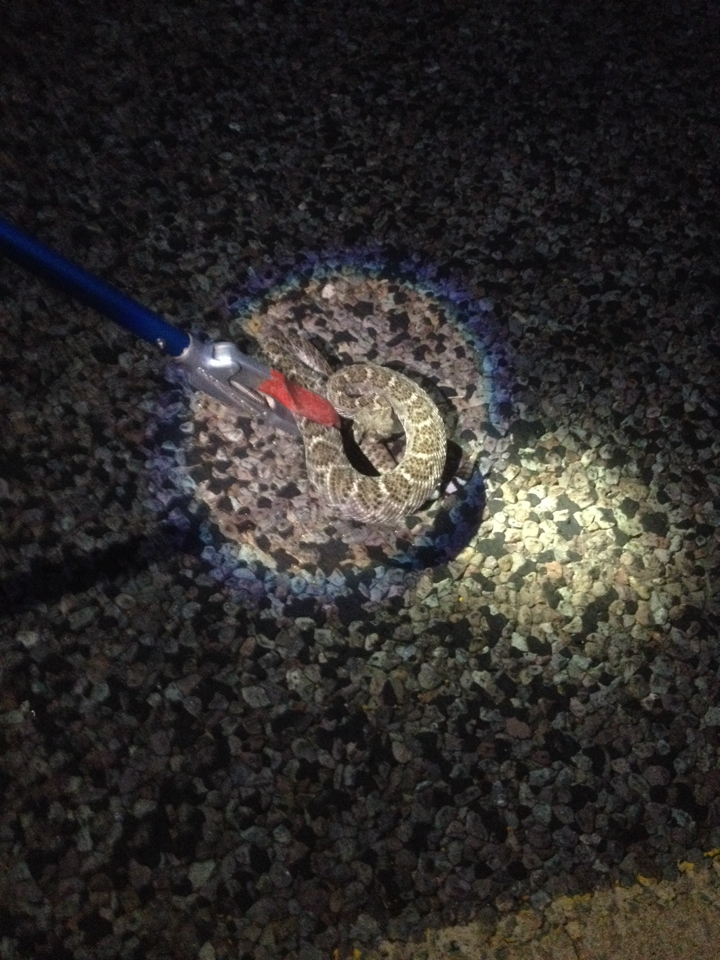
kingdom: Animalia
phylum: Chordata
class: Squamata
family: Viperidae
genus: Crotalus
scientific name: Crotalus atrox
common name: Western diamond-backed rattlesnake
